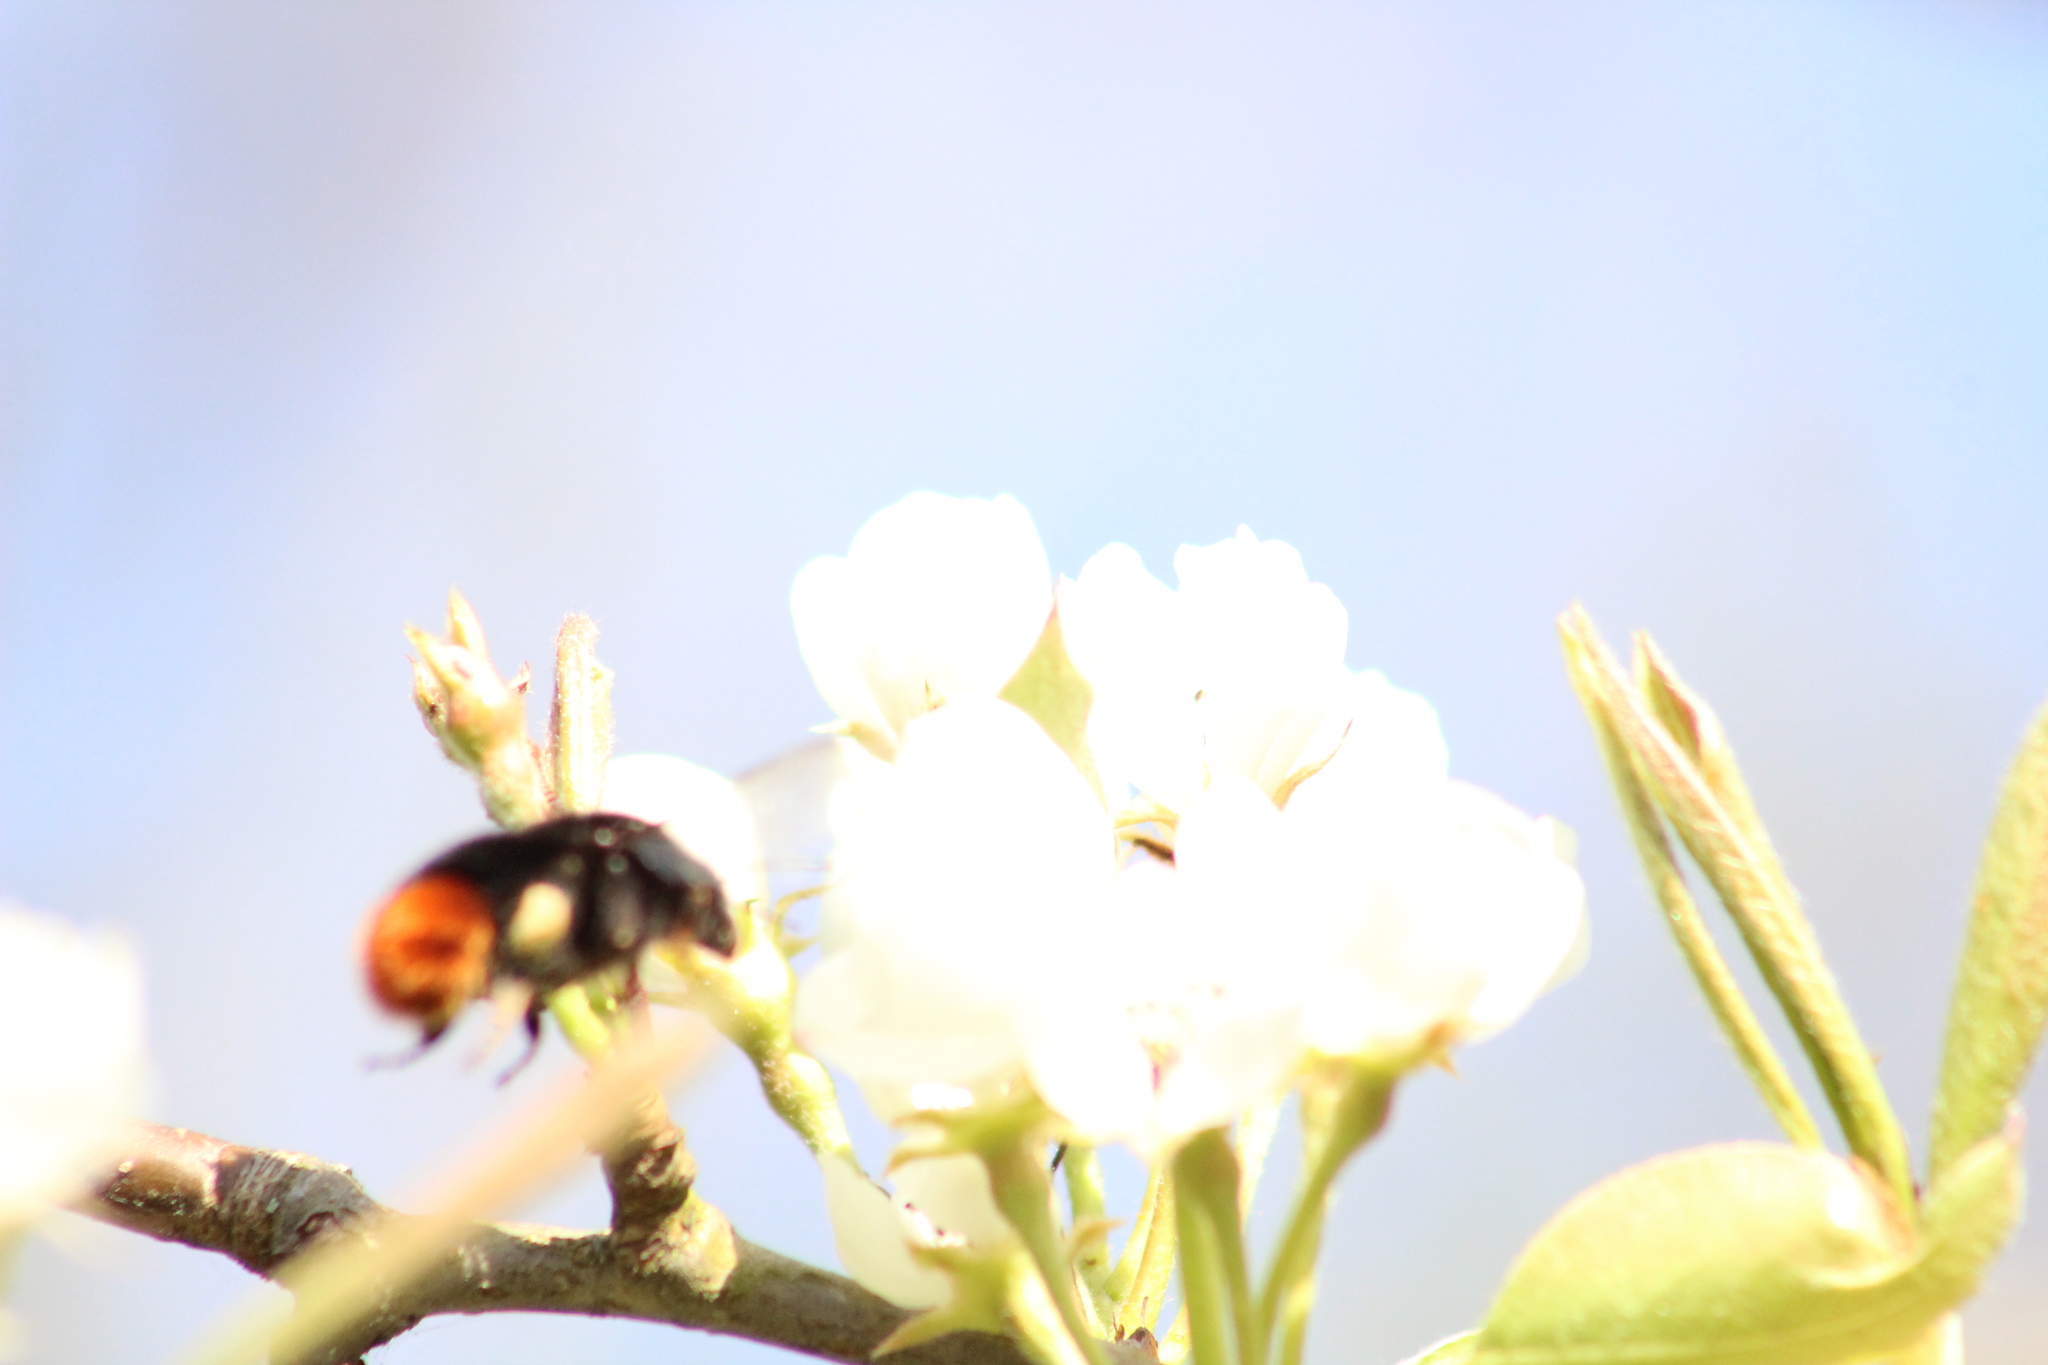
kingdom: Animalia
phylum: Arthropoda
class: Insecta
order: Hymenoptera
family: Apidae
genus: Bombus
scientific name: Bombus lapidarius
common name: Large red-tailed humble-bee
